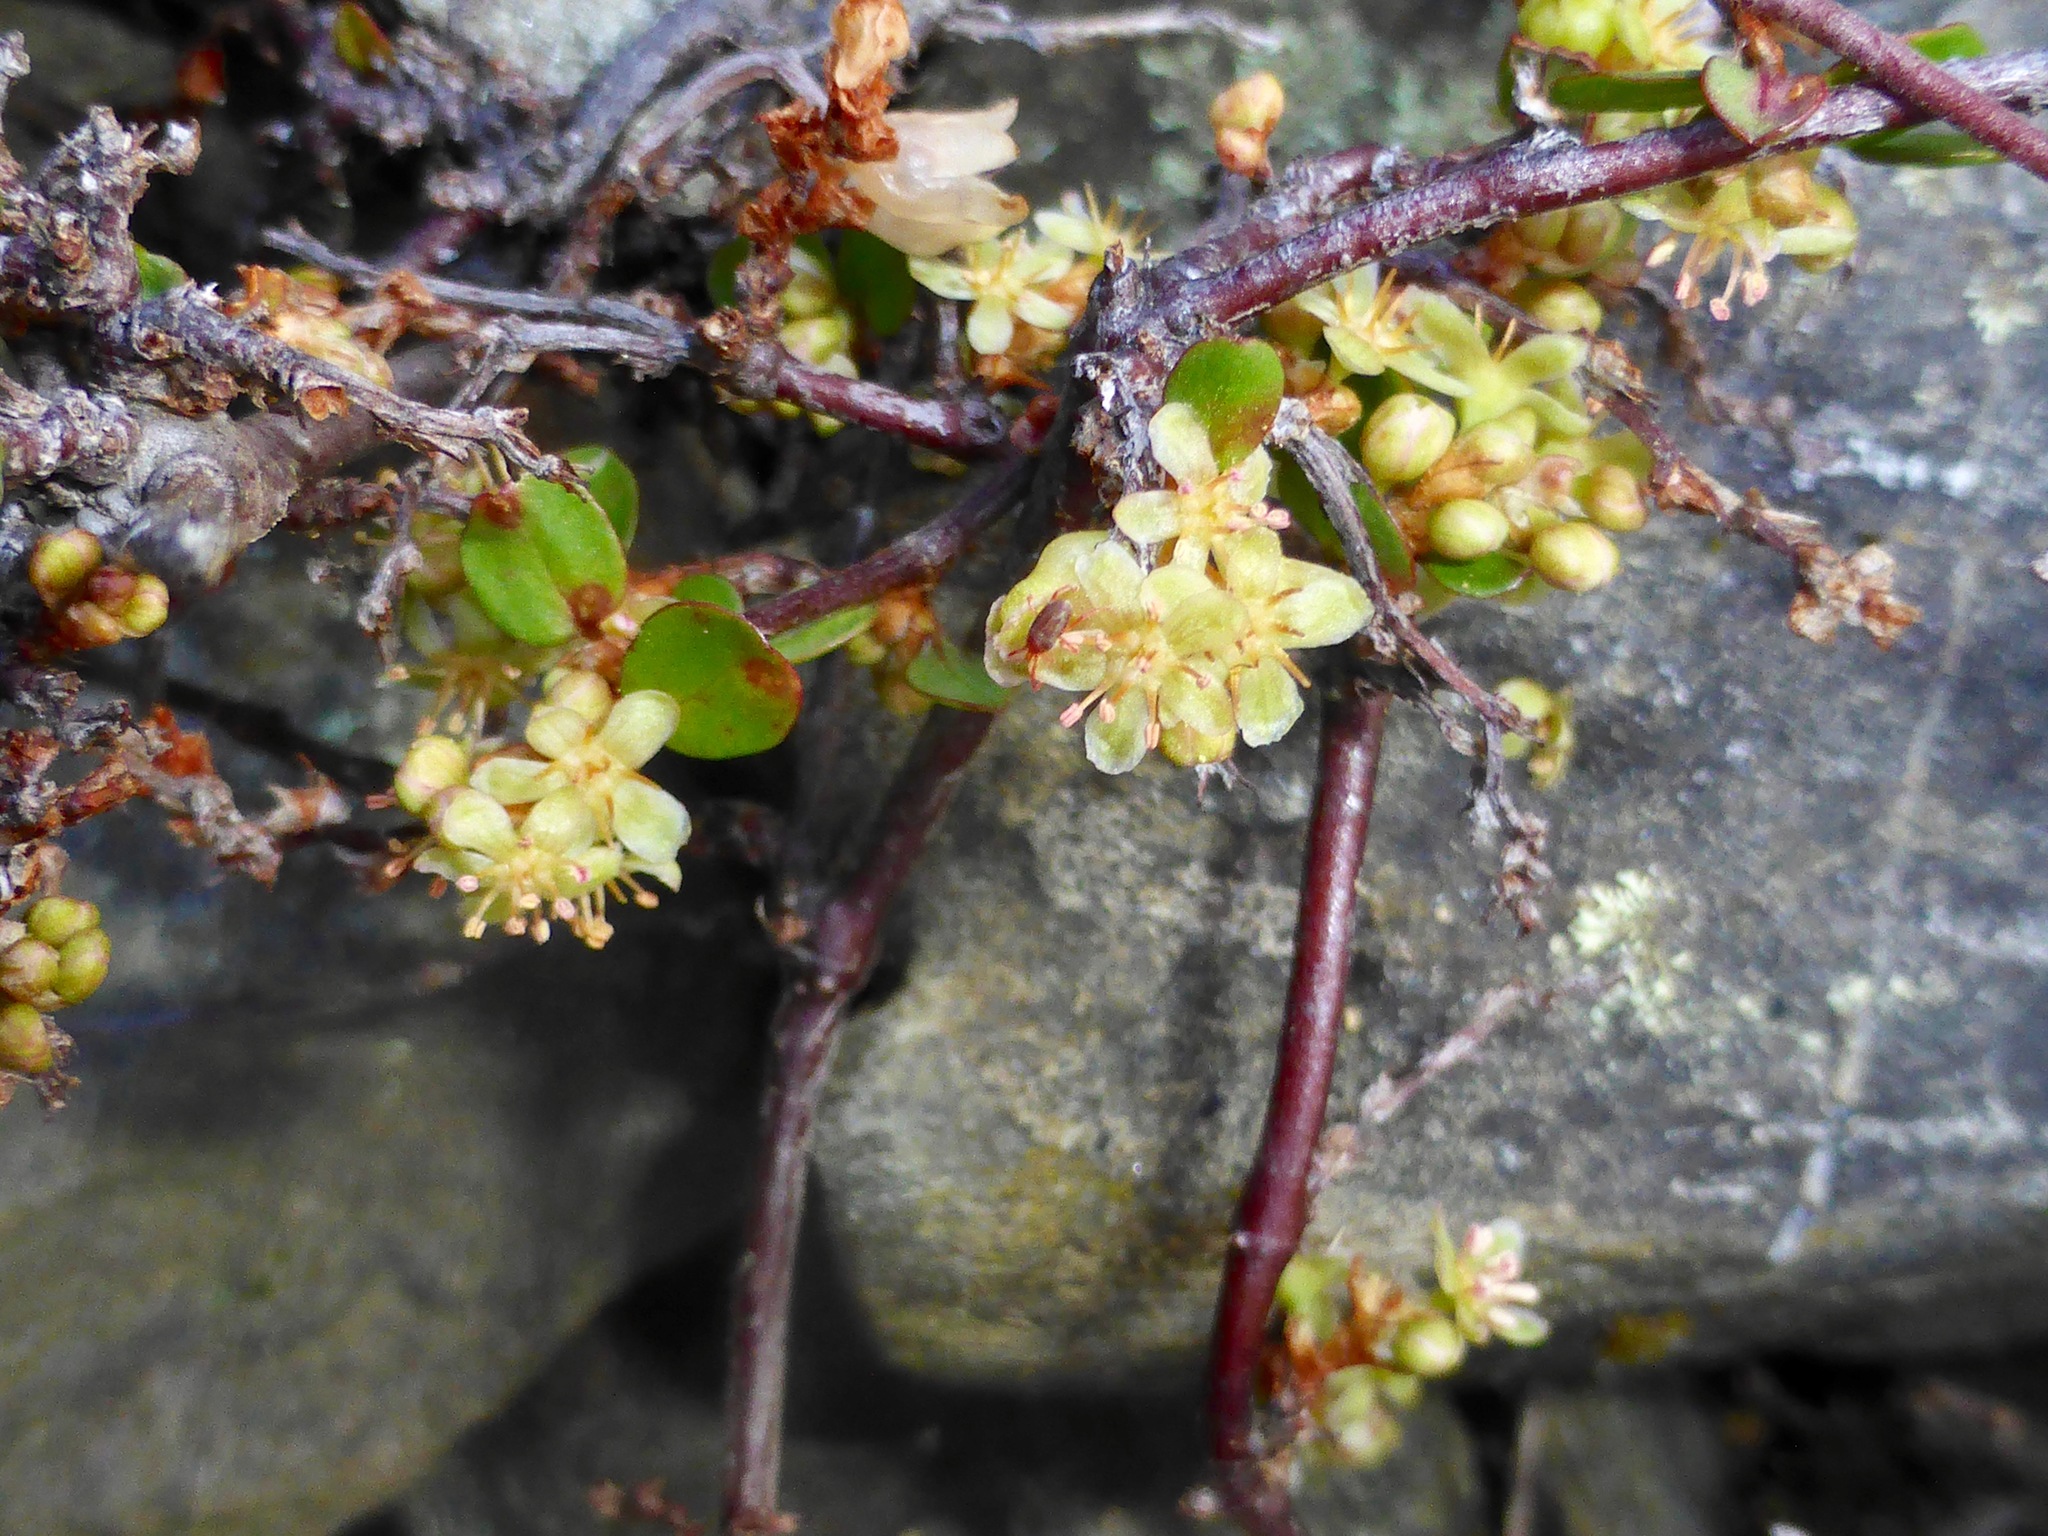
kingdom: Plantae
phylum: Tracheophyta
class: Magnoliopsida
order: Caryophyllales
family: Polygonaceae
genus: Muehlenbeckia
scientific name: Muehlenbeckia complexa
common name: Wireplant
